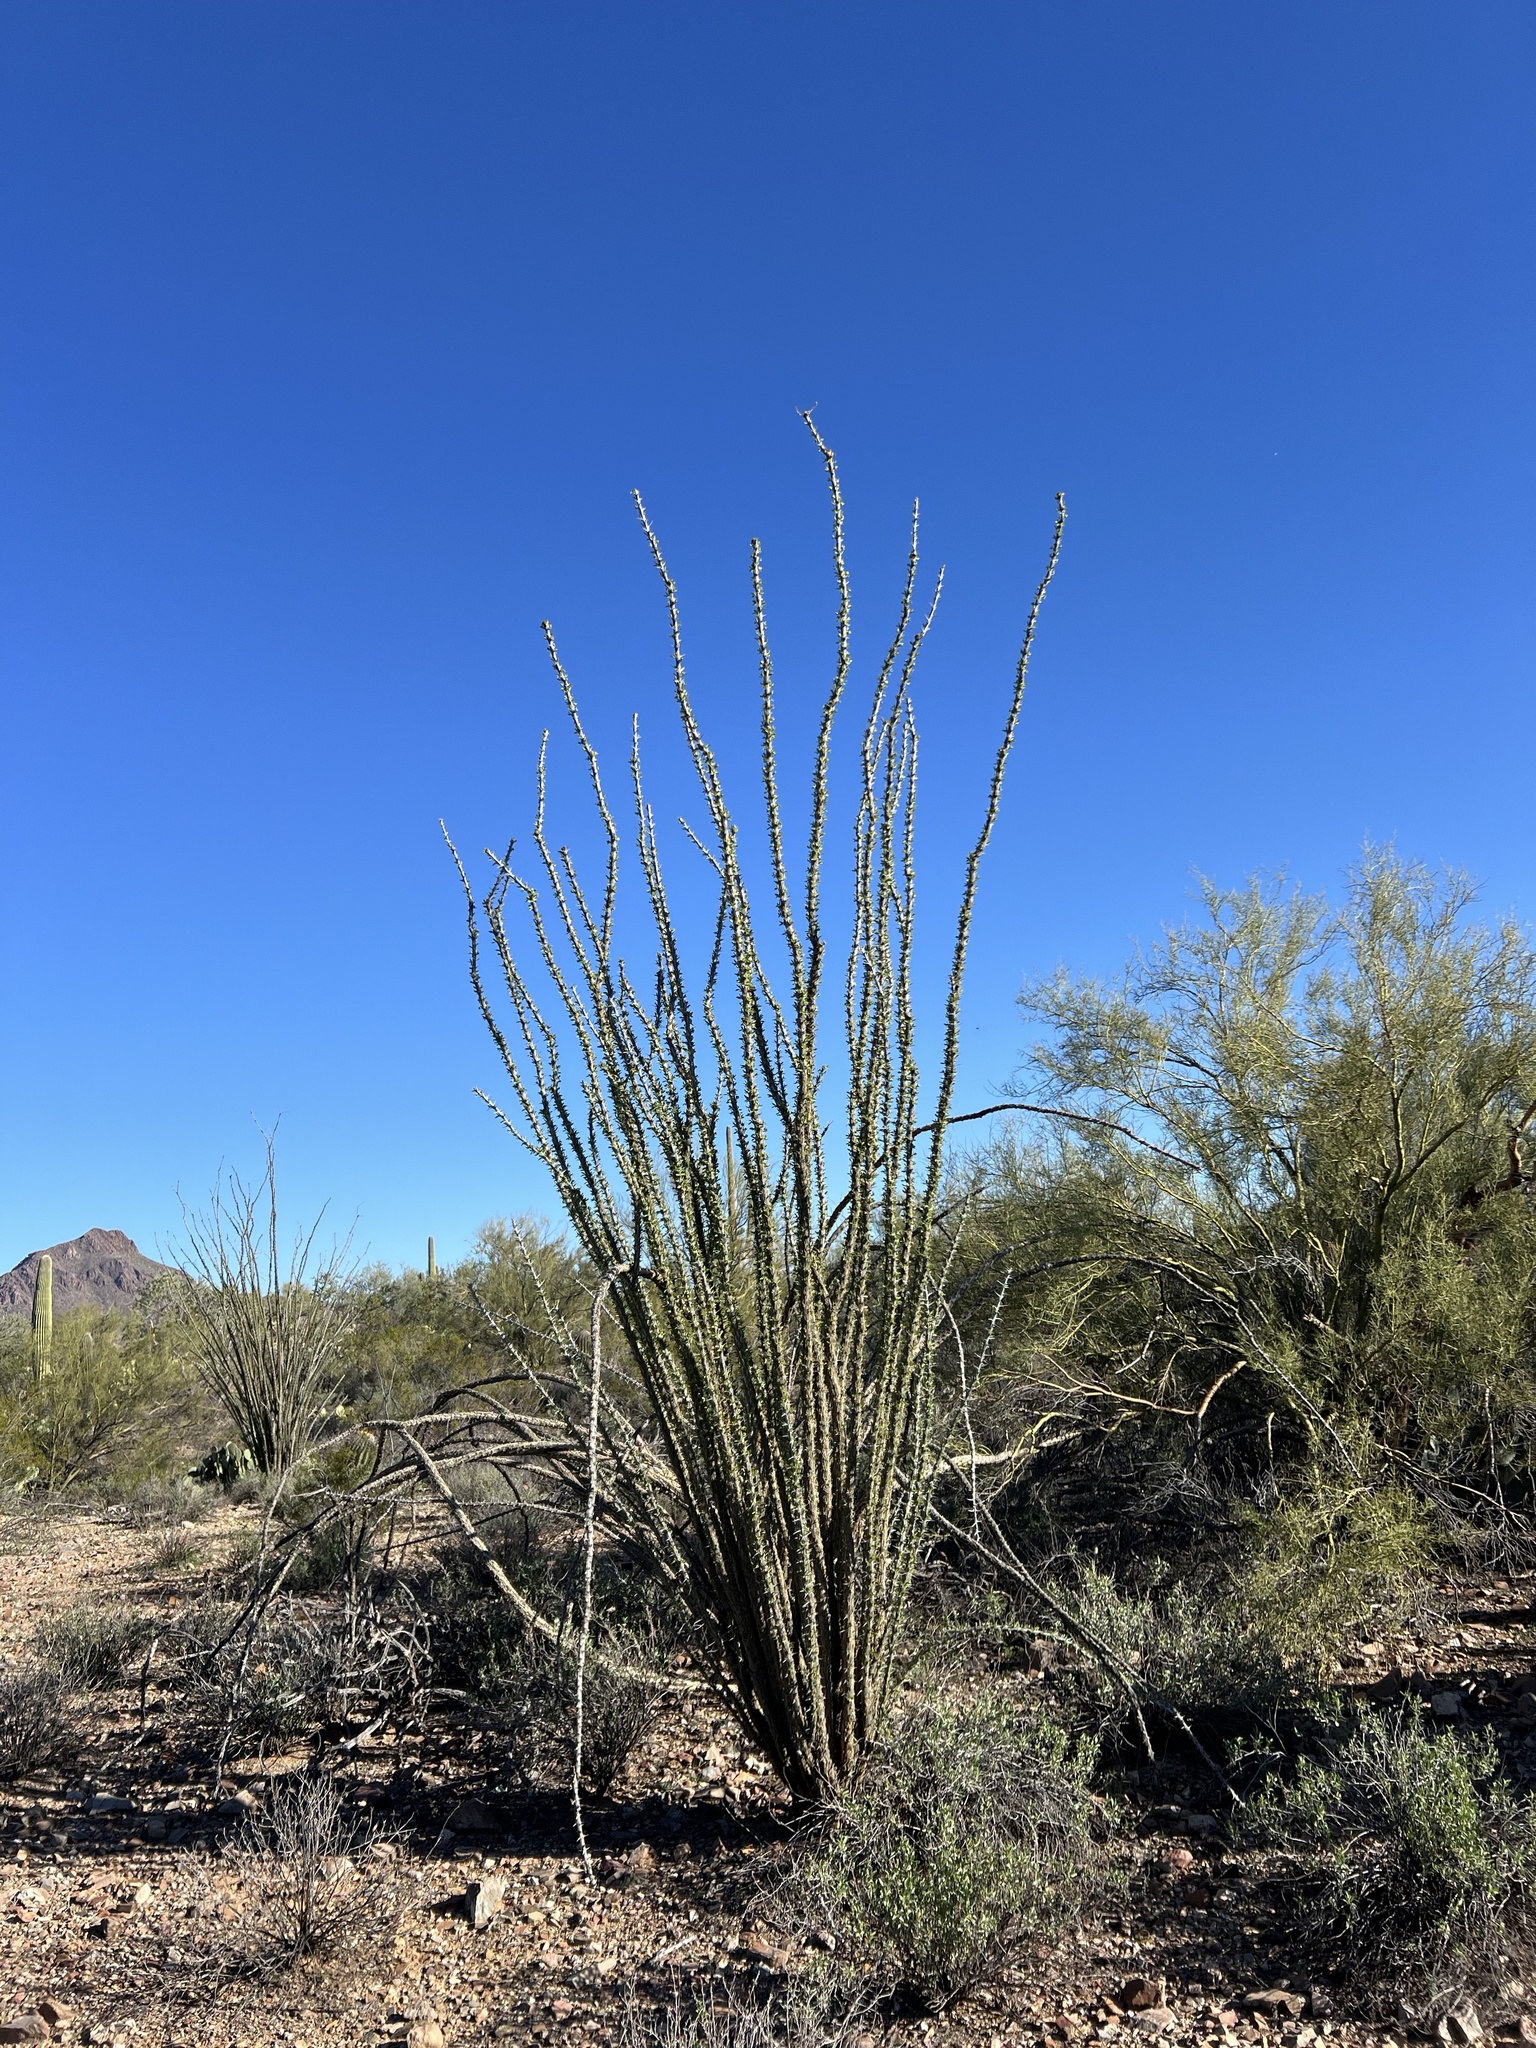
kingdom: Plantae
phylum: Tracheophyta
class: Magnoliopsida
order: Ericales
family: Fouquieriaceae
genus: Fouquieria
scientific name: Fouquieria splendens
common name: Vine-cactus
